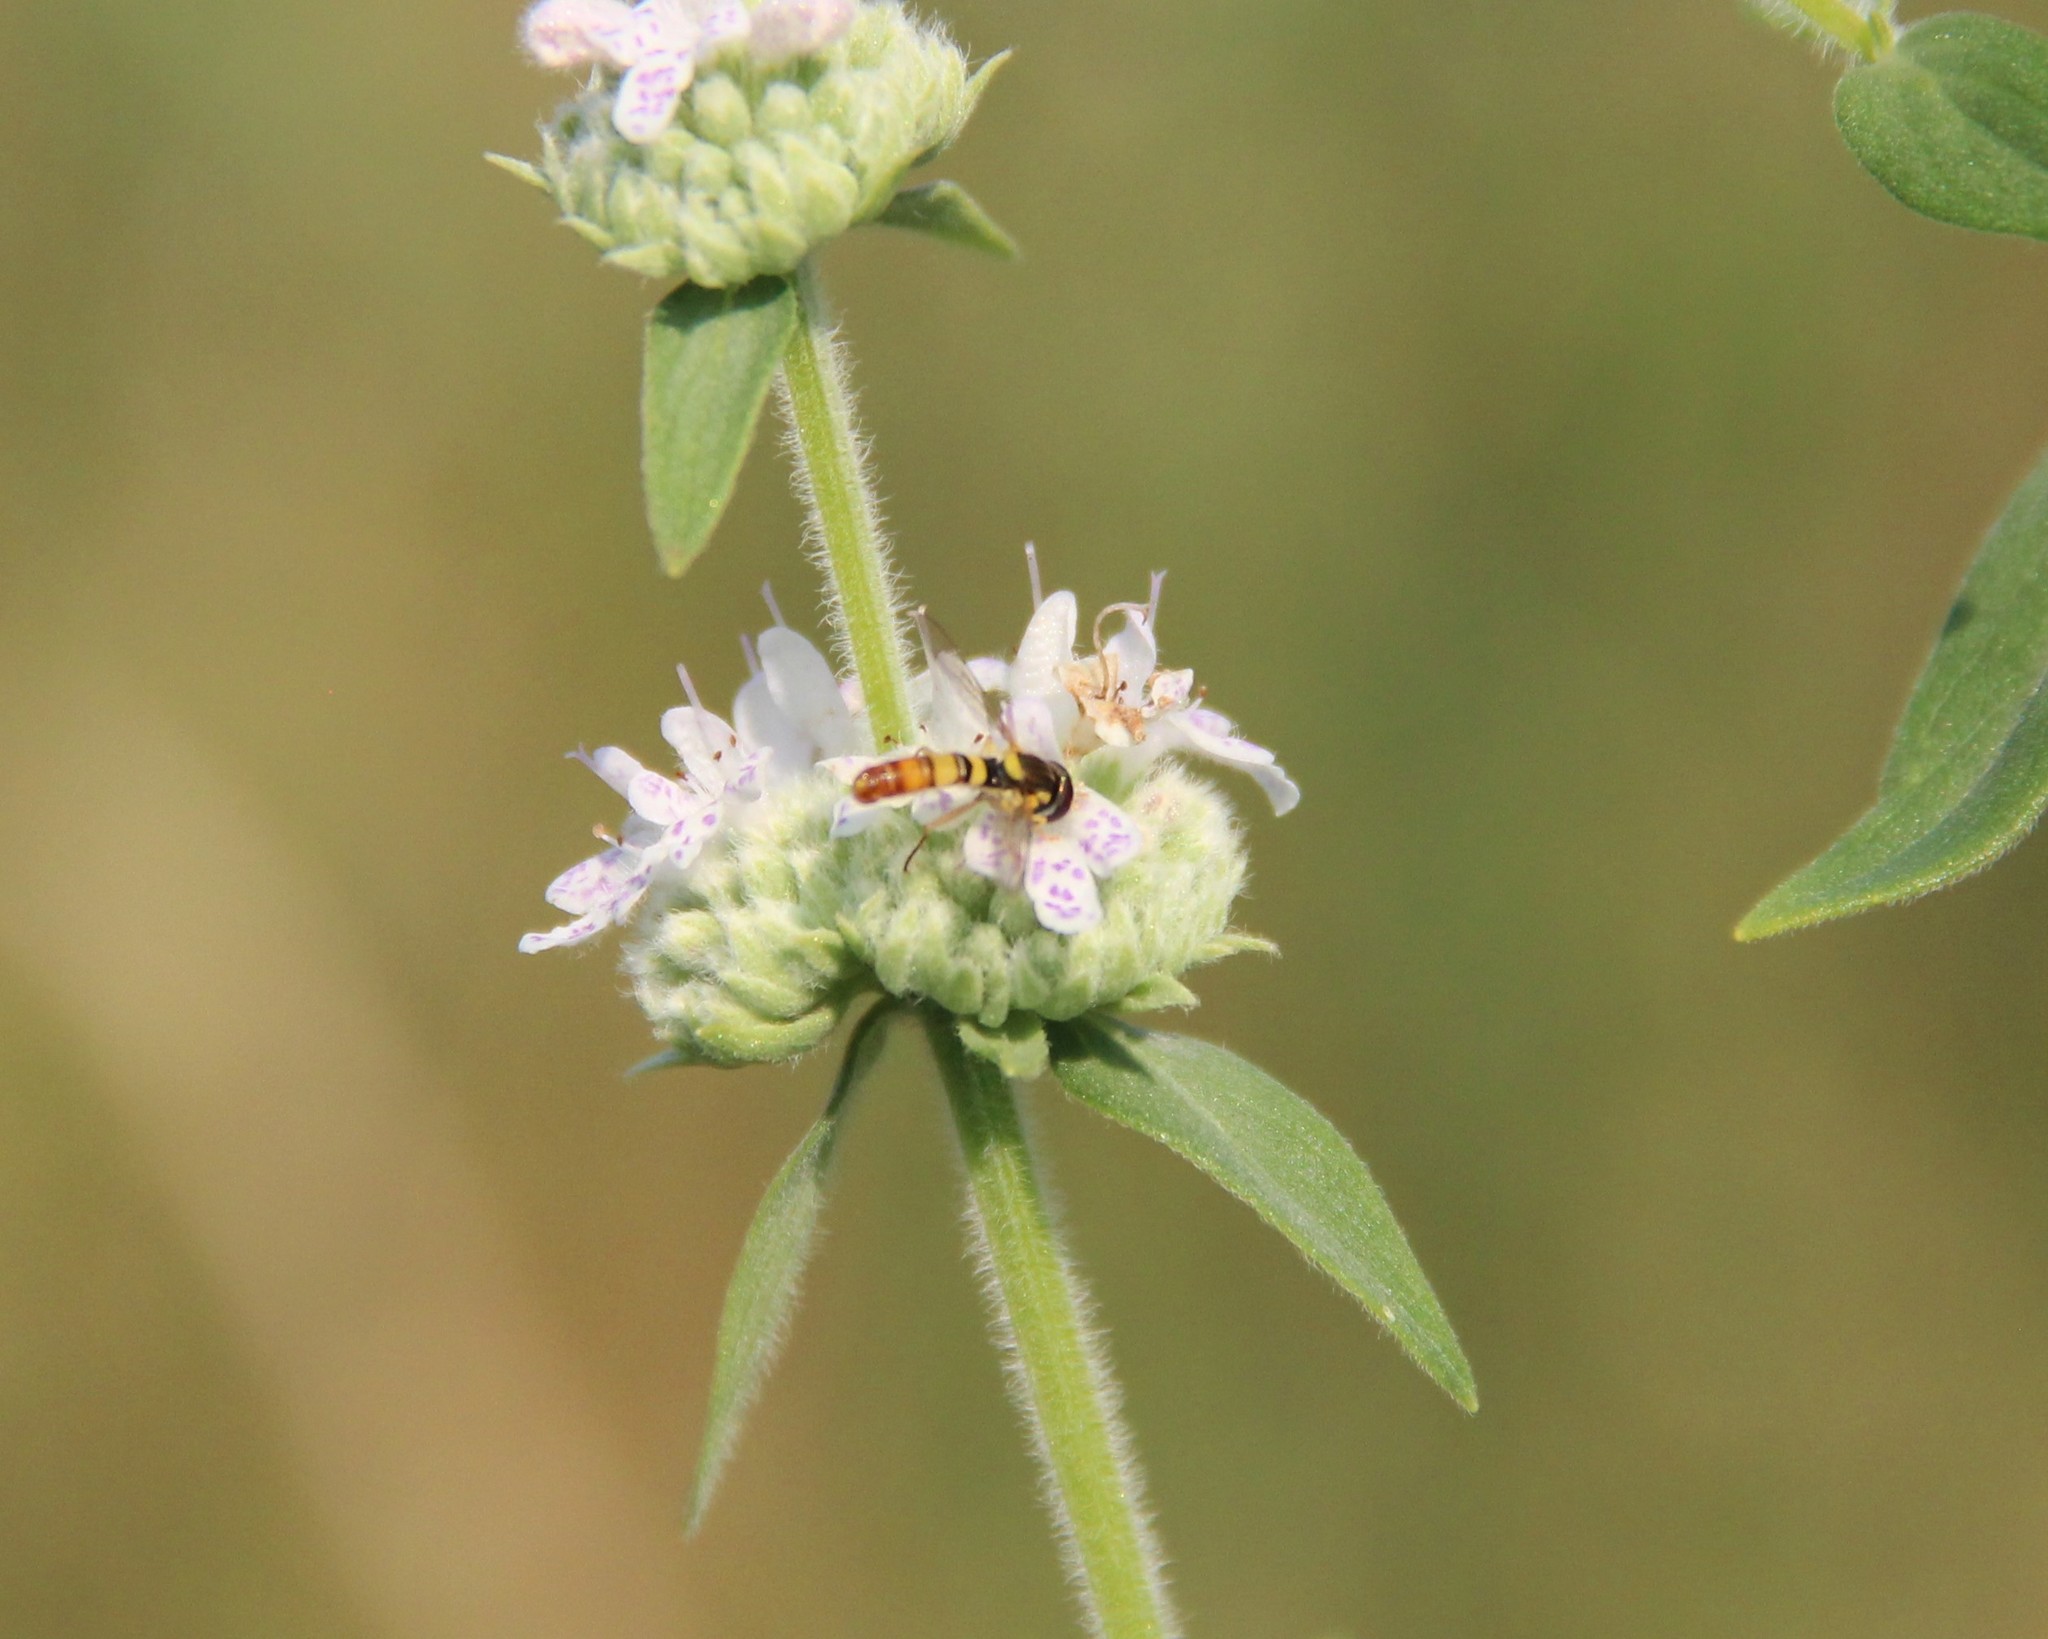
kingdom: Animalia
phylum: Arthropoda
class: Insecta
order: Diptera
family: Syrphidae
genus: Sphaerophoria
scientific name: Sphaerophoria contigua
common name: Tufted globetail
